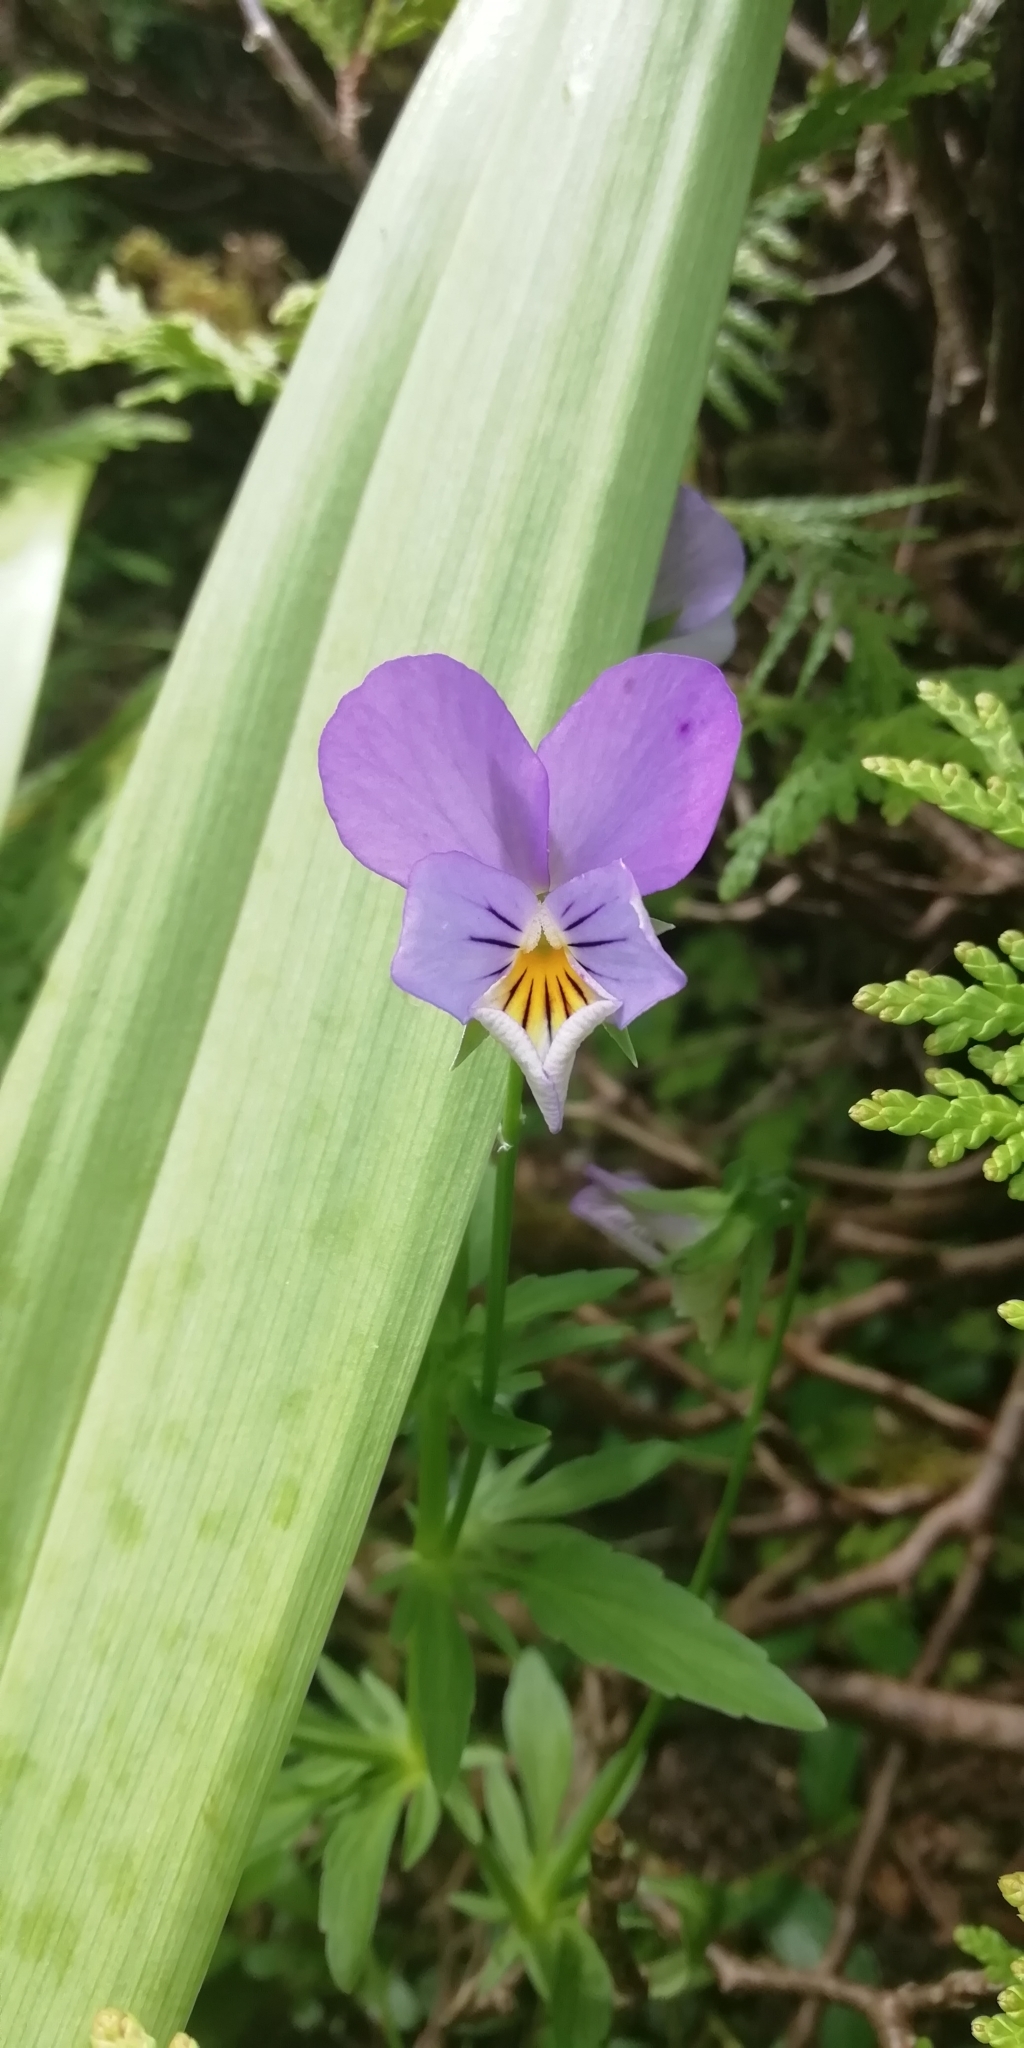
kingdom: Plantae
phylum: Tracheophyta
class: Magnoliopsida
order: Malpighiales
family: Violaceae
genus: Viola
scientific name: Viola tricolor
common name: Pansy
